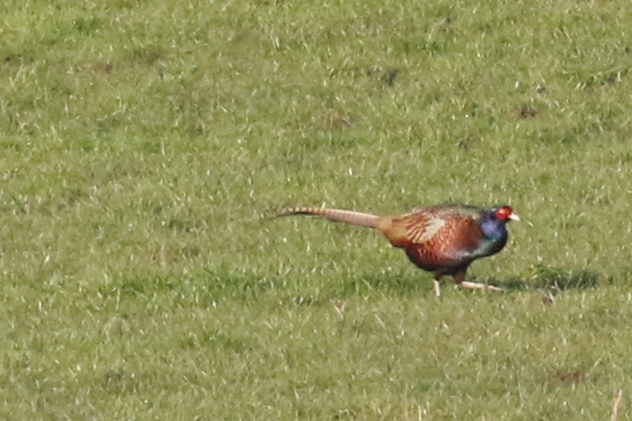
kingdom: Animalia
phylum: Chordata
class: Aves
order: Galliformes
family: Phasianidae
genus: Phasianus
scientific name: Phasianus colchicus
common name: Common pheasant
